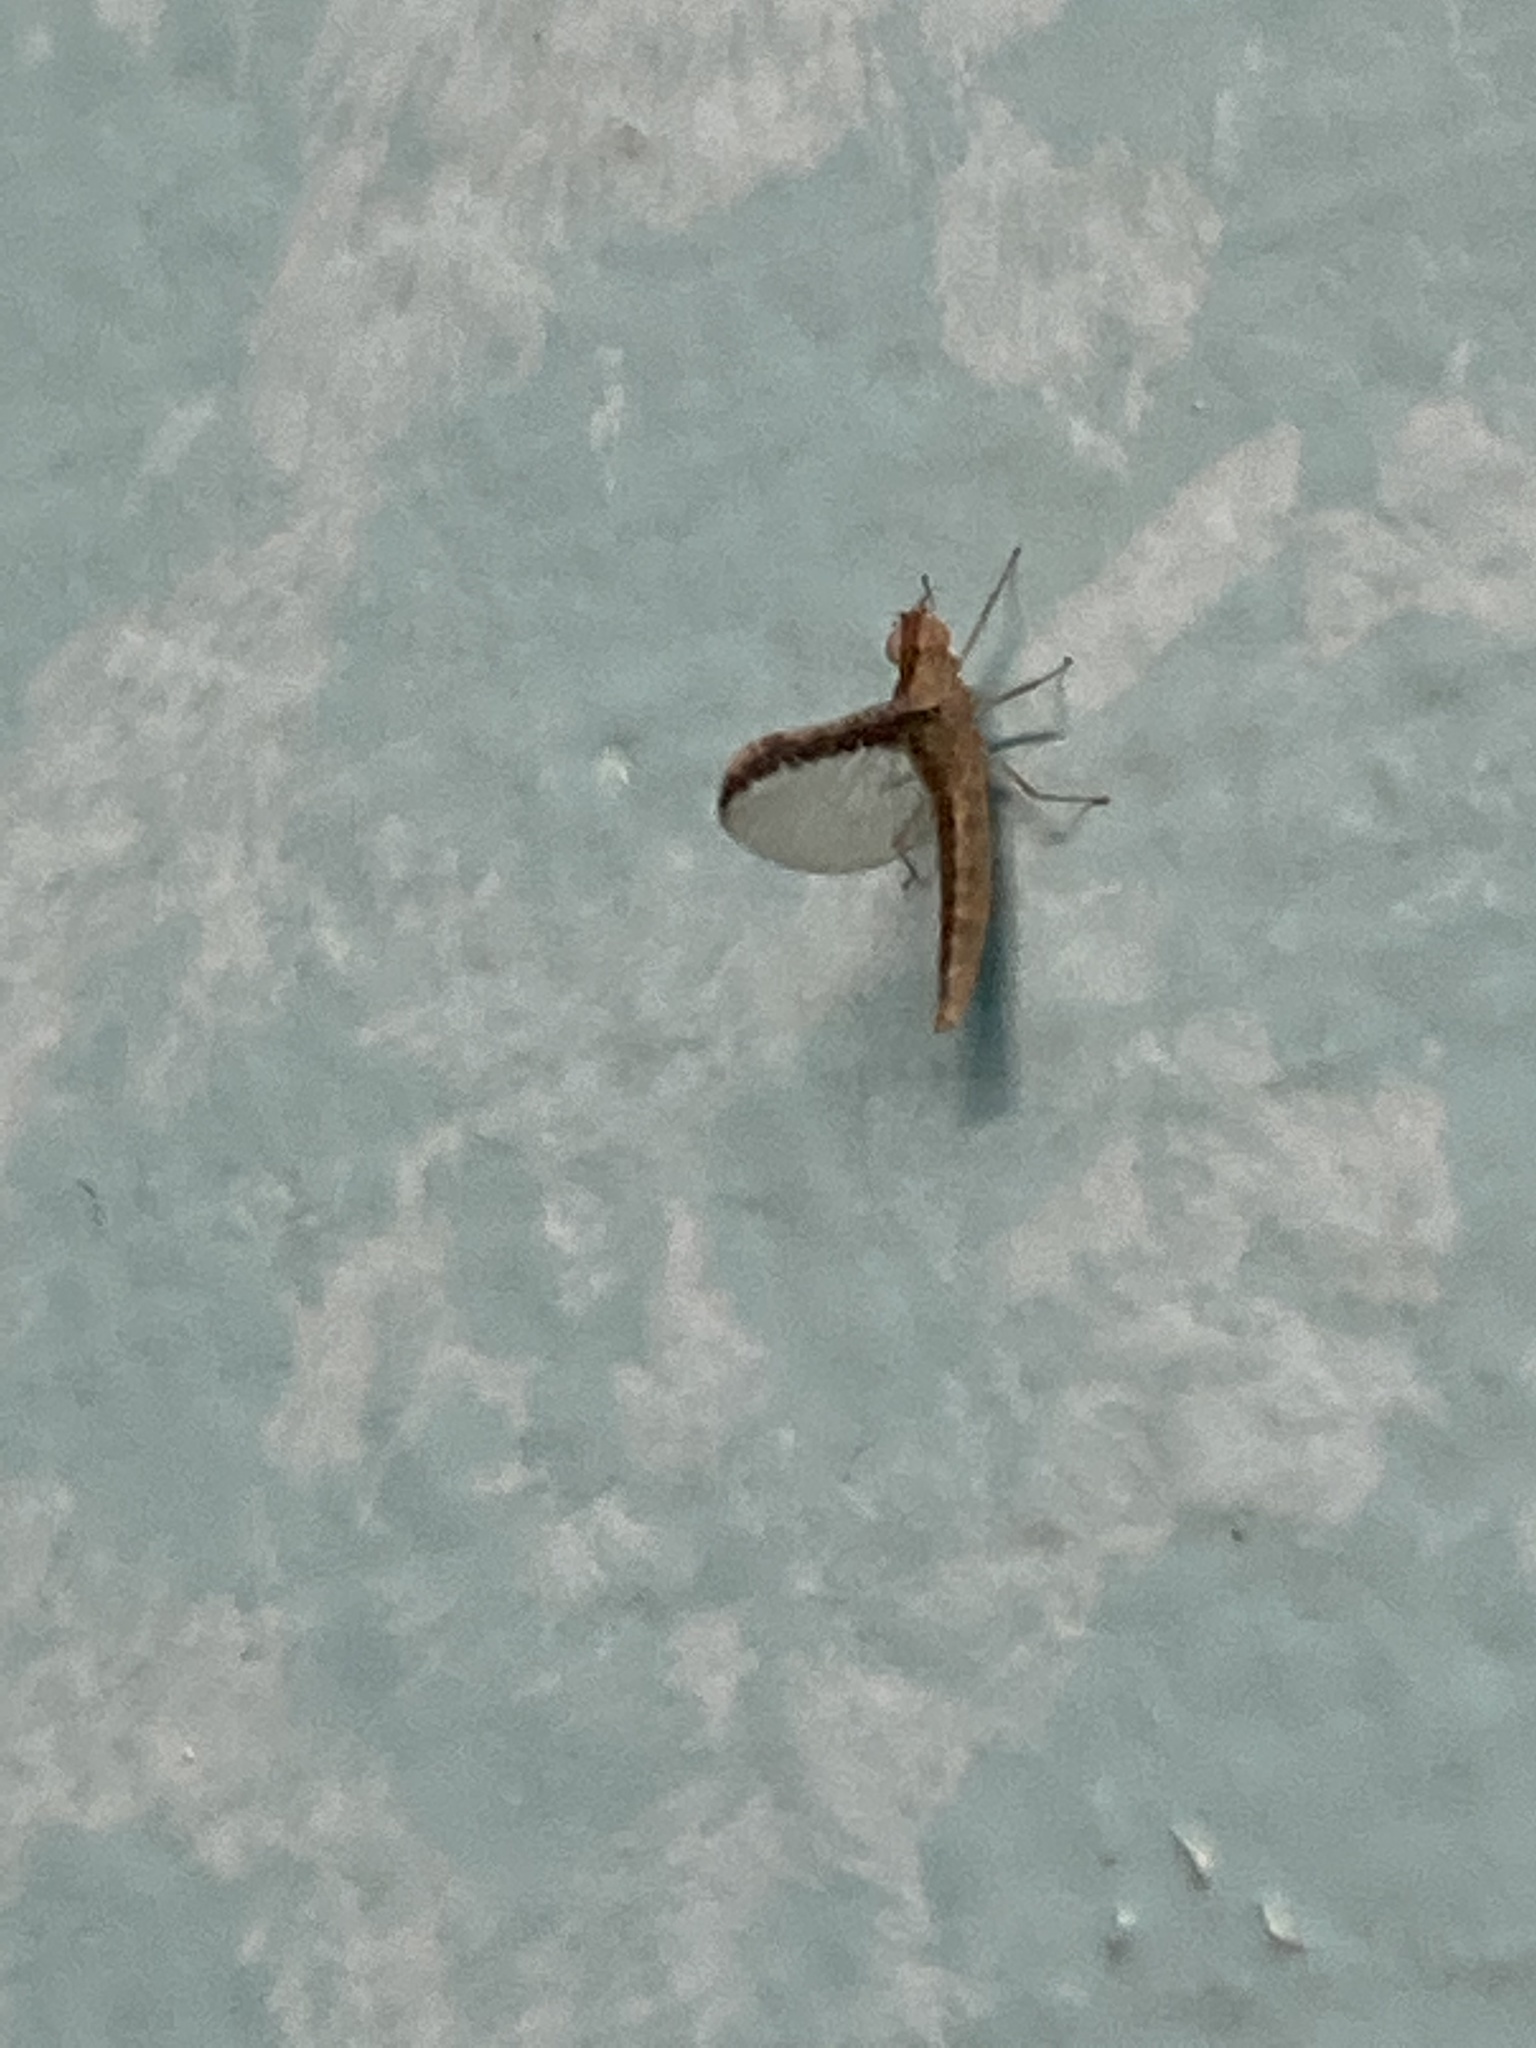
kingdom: Animalia
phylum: Arthropoda
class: Insecta
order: Ephemeroptera
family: Baetidae
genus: Callibaetis
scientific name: Callibaetis floridanus
